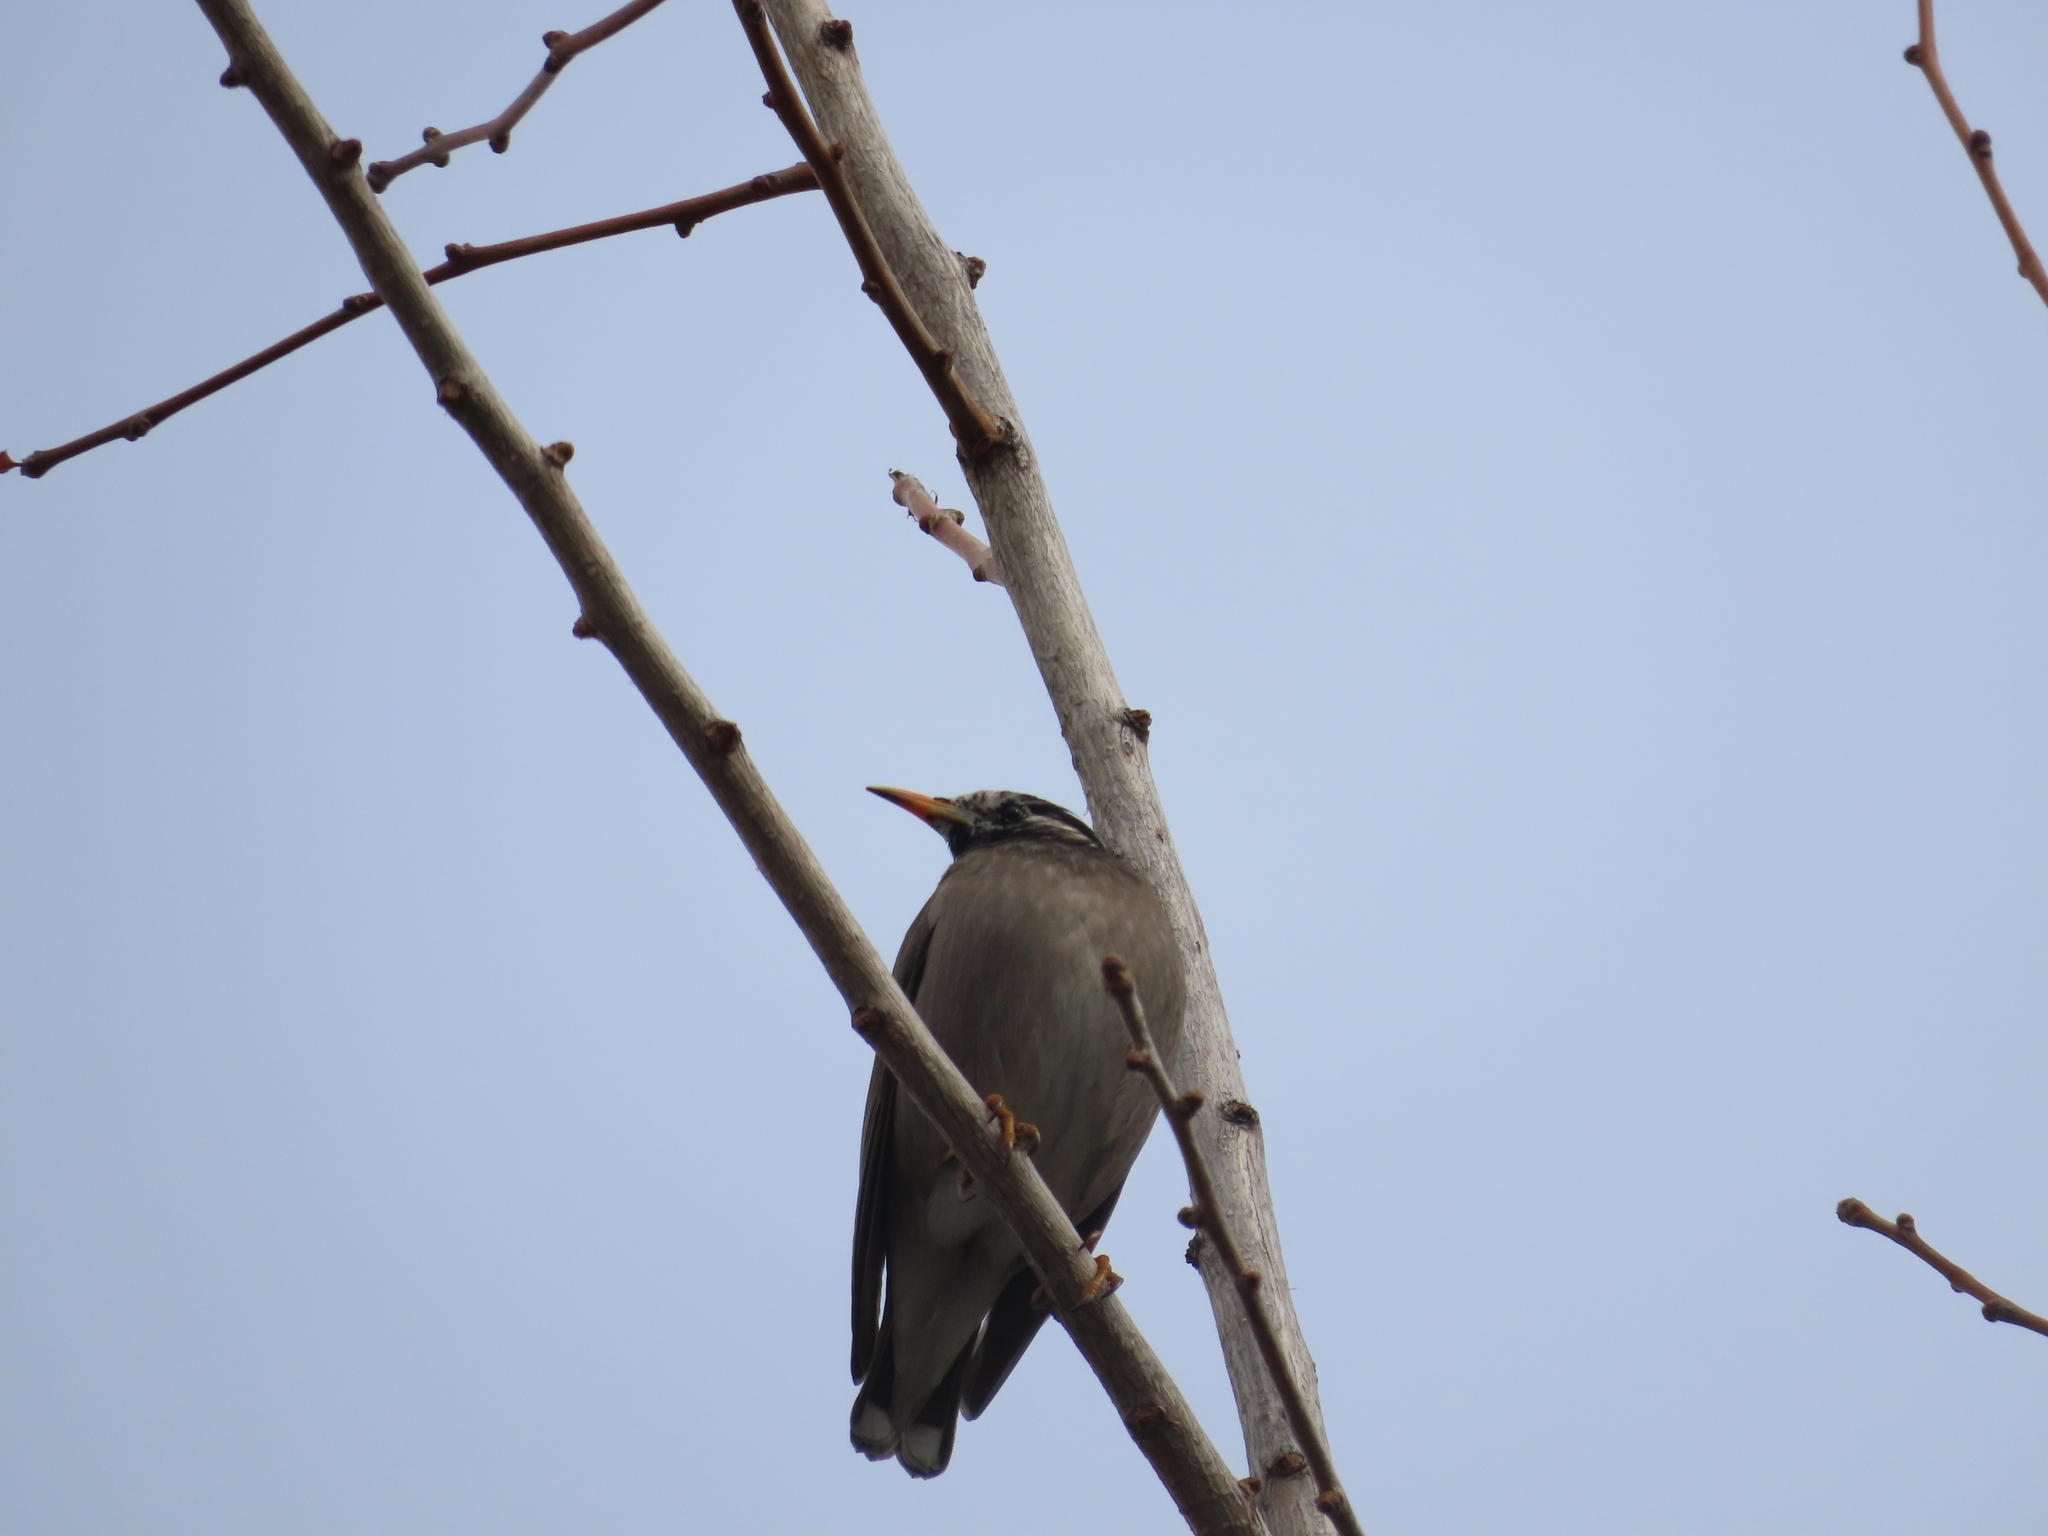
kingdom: Animalia
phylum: Chordata
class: Aves
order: Passeriformes
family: Sturnidae
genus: Spodiopsar
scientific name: Spodiopsar cineraceus
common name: White-cheeked starling
